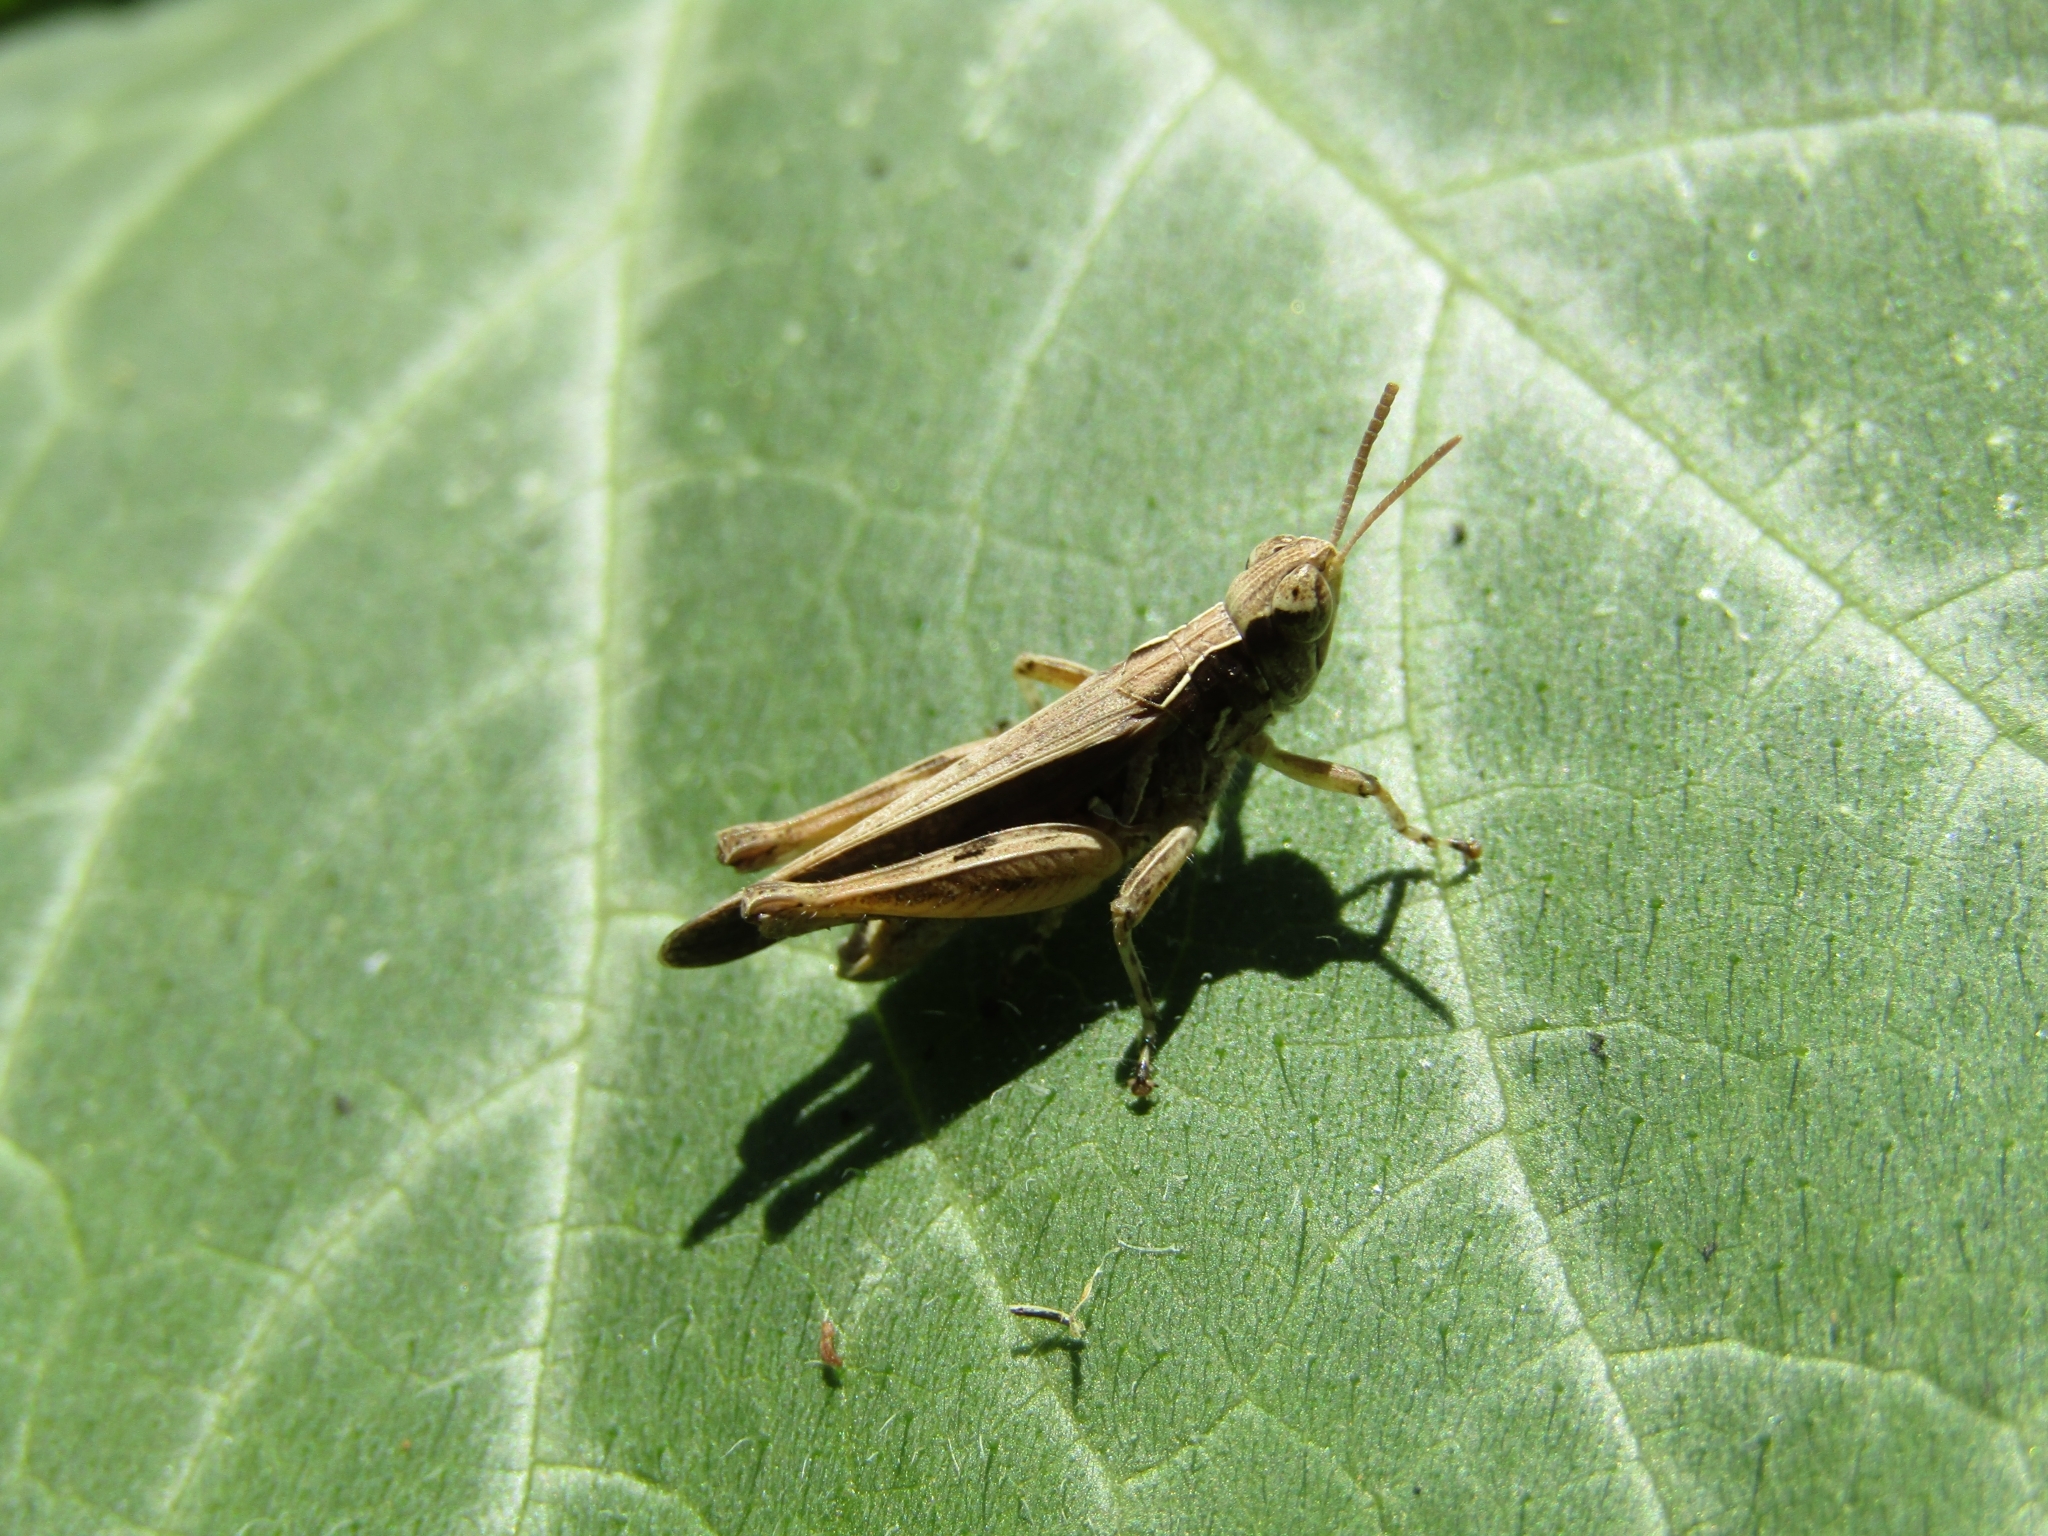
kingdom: Animalia
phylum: Arthropoda
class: Insecta
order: Orthoptera
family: Acrididae
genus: Orphulella
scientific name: Orphulella punctata
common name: Slant-faced grasshopper
